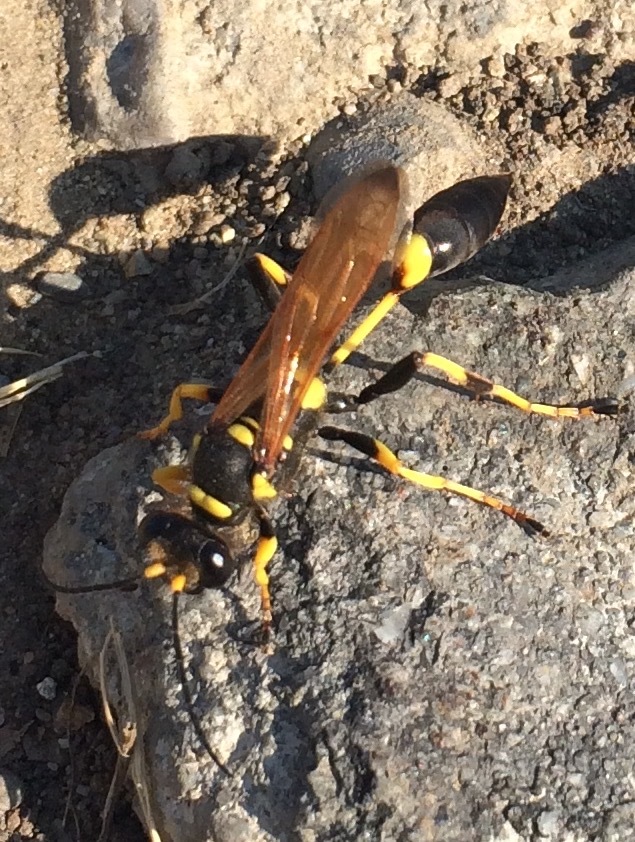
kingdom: Animalia
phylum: Arthropoda
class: Insecta
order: Hymenoptera
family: Sphecidae
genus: Sceliphron
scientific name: Sceliphron caementarium
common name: Mud dauber
